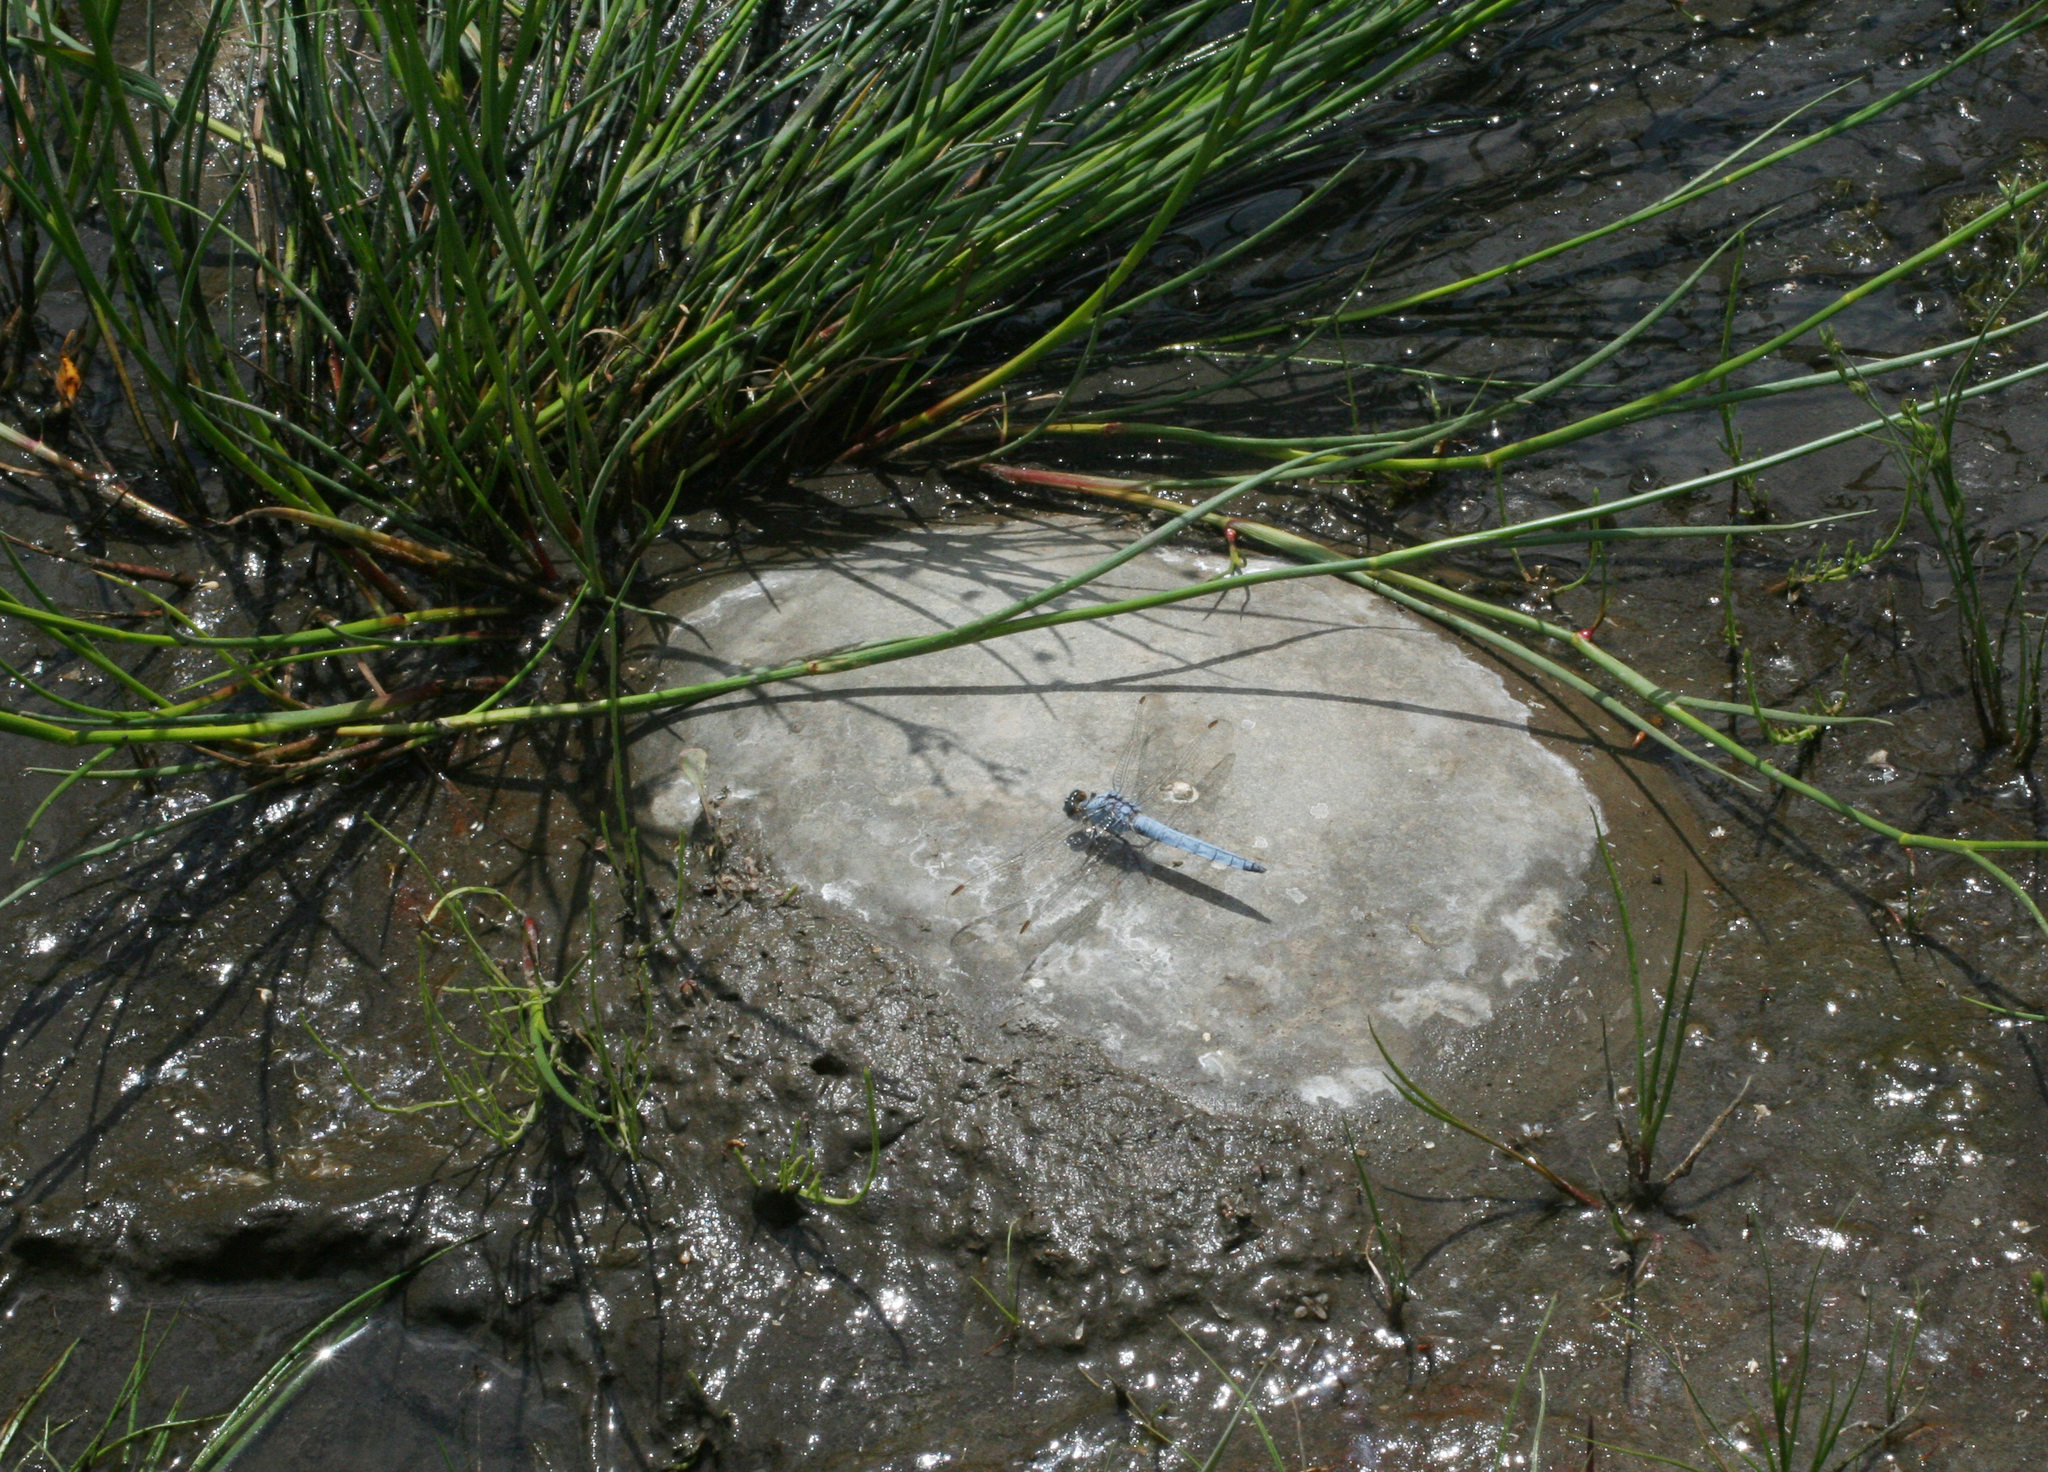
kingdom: Animalia
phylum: Arthropoda
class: Insecta
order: Odonata
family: Libellulidae
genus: Orthetrum
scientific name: Orthetrum brunneum
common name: Southern skimmer
